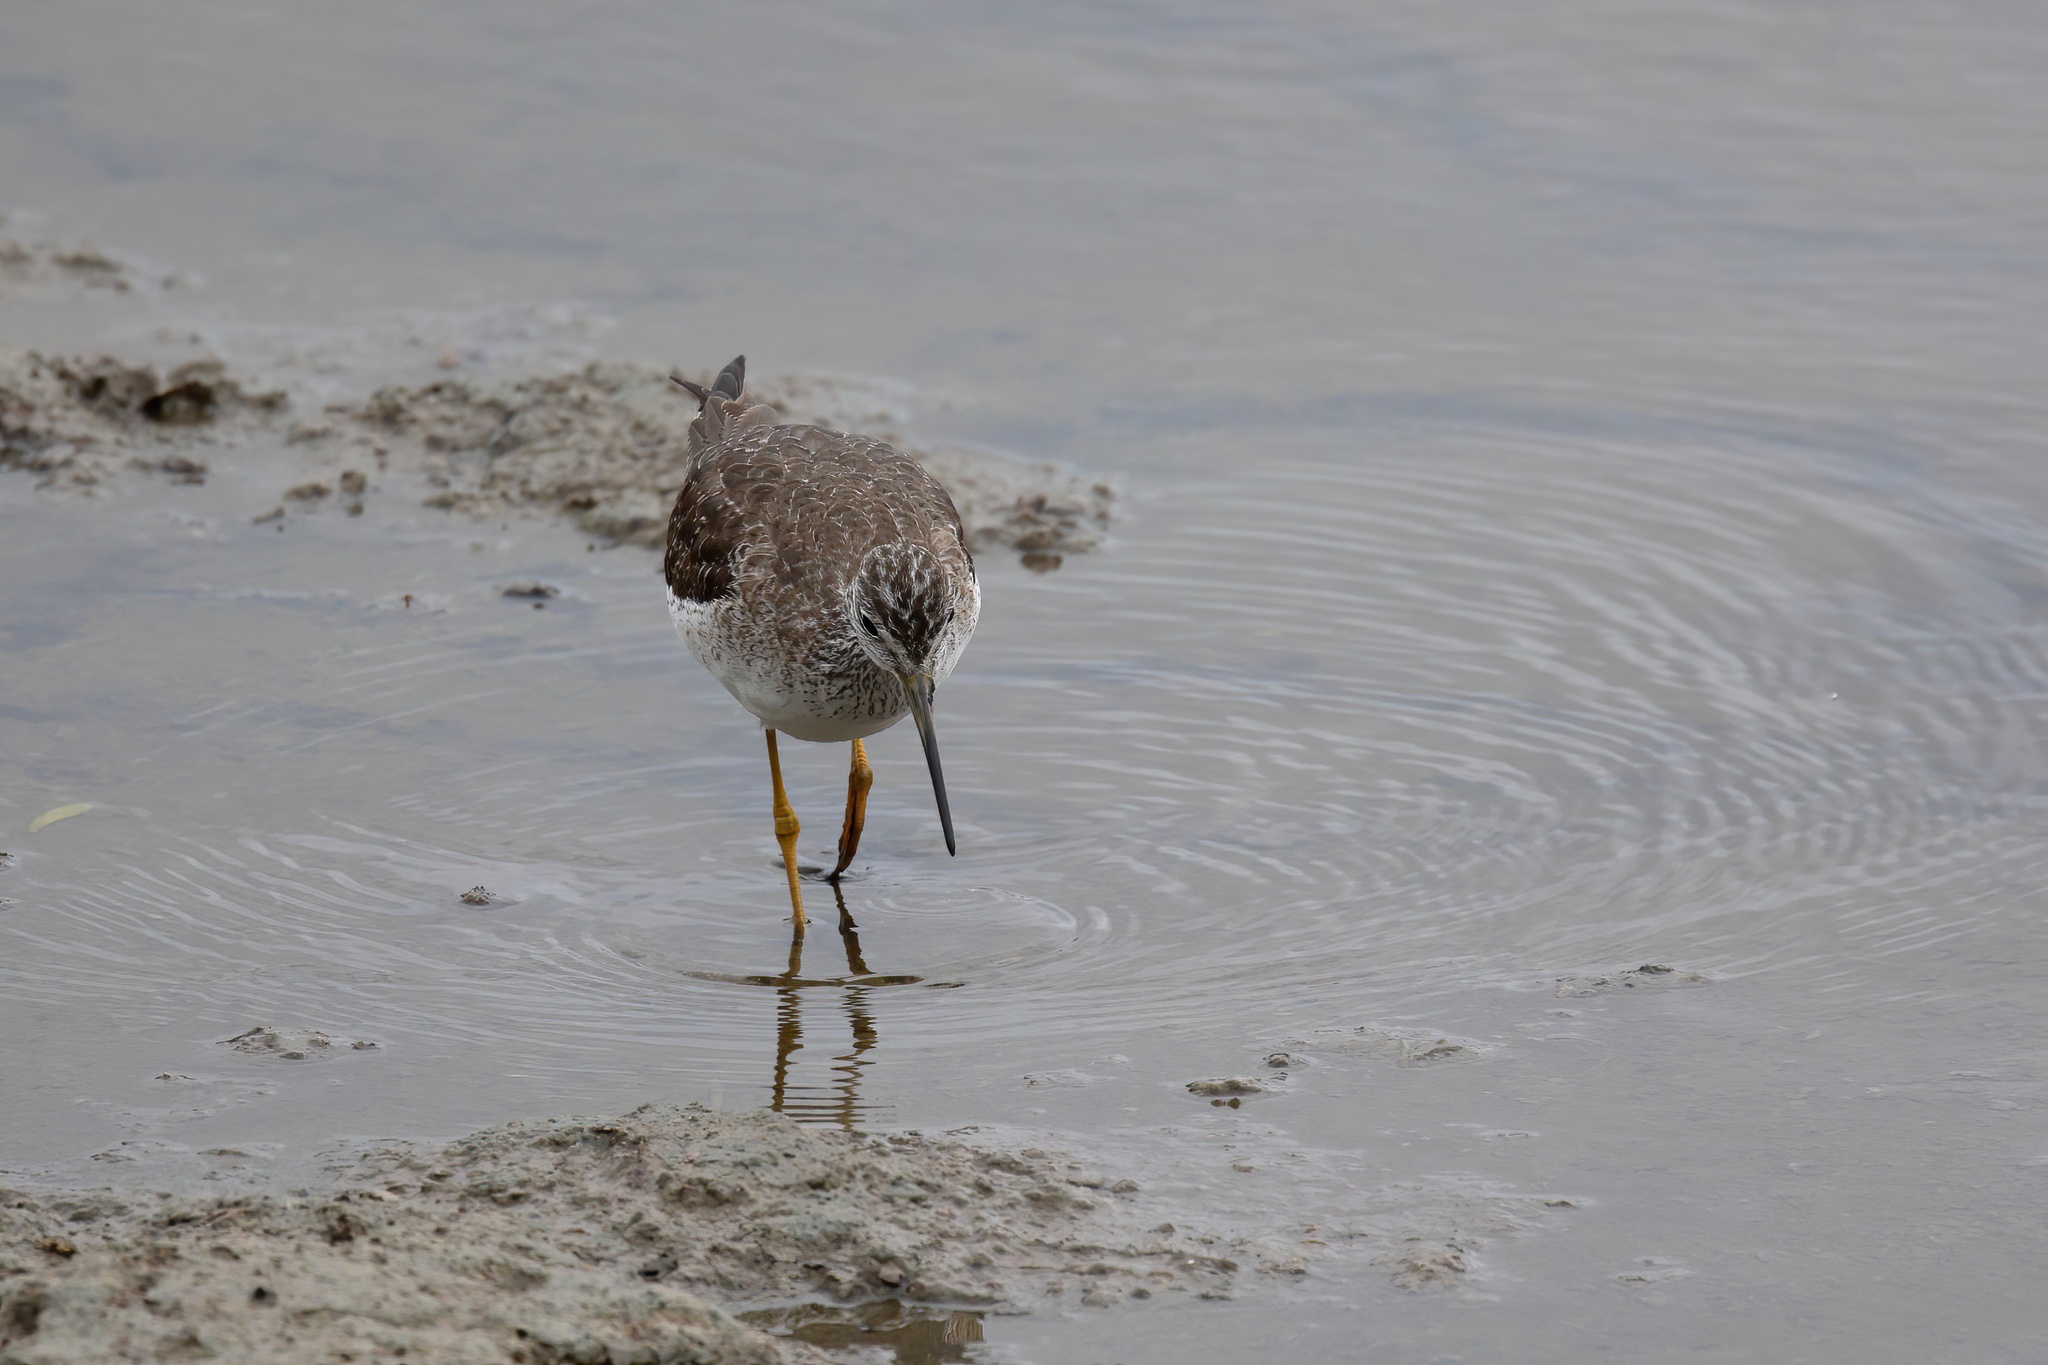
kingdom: Animalia
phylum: Chordata
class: Aves
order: Charadriiformes
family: Scolopacidae
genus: Tringa
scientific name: Tringa melanoleuca
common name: Greater yellowlegs
